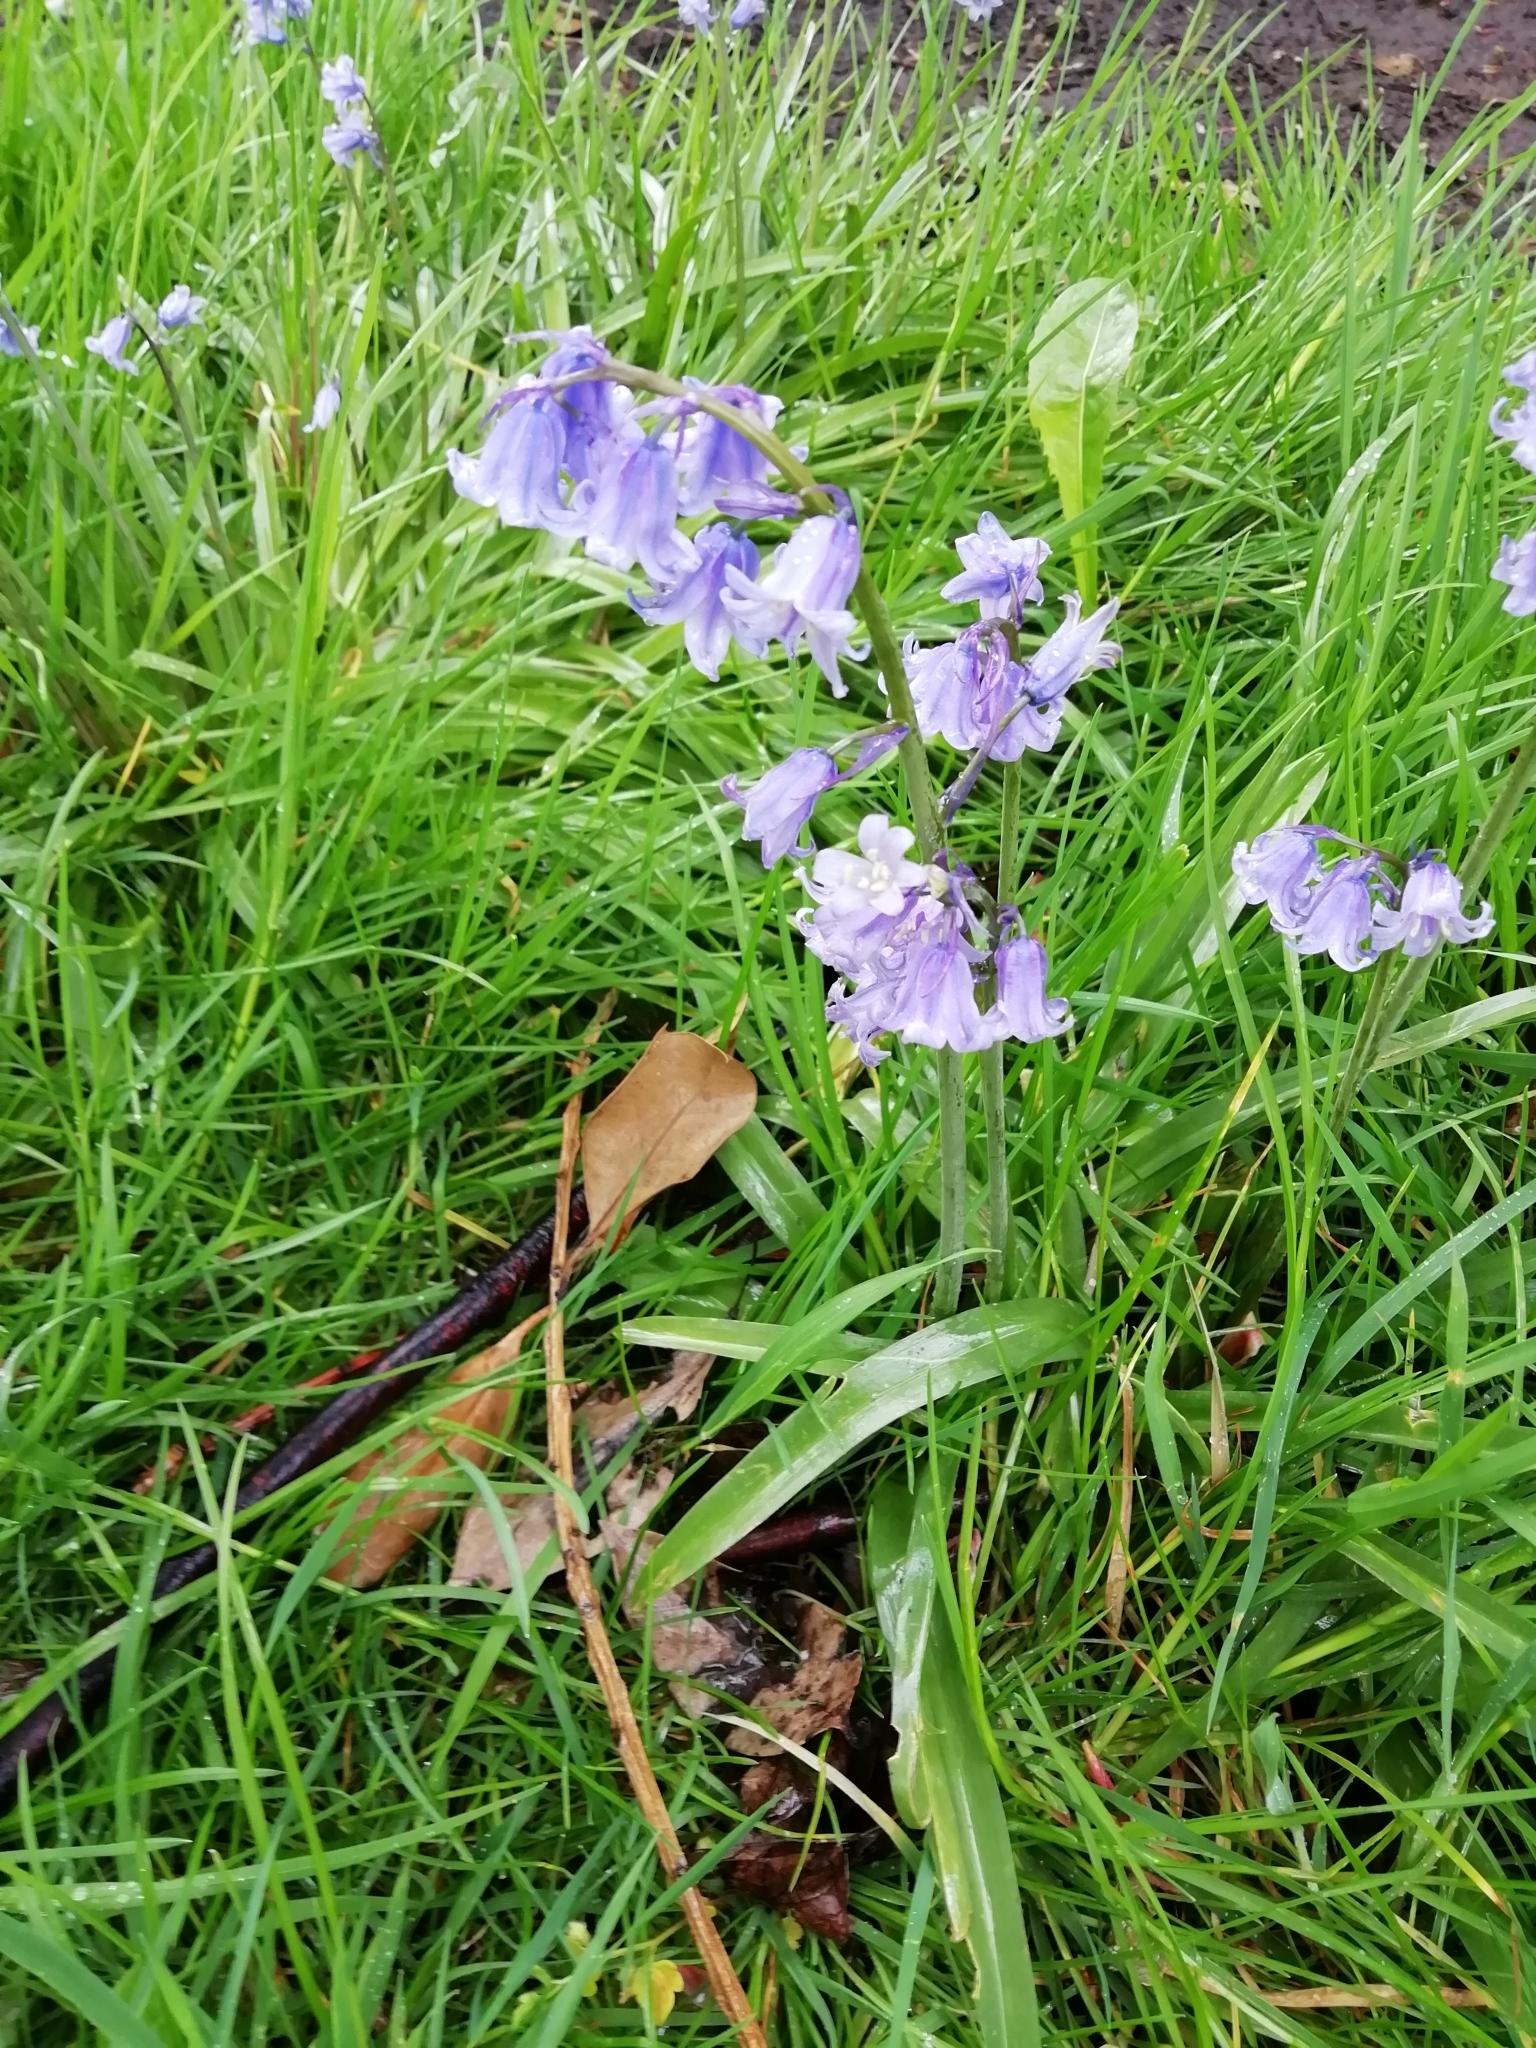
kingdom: Plantae
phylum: Tracheophyta
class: Liliopsida
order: Asparagales
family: Asparagaceae
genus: Hyacinthoides
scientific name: Hyacinthoides hispanica
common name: Spanish bluebell
